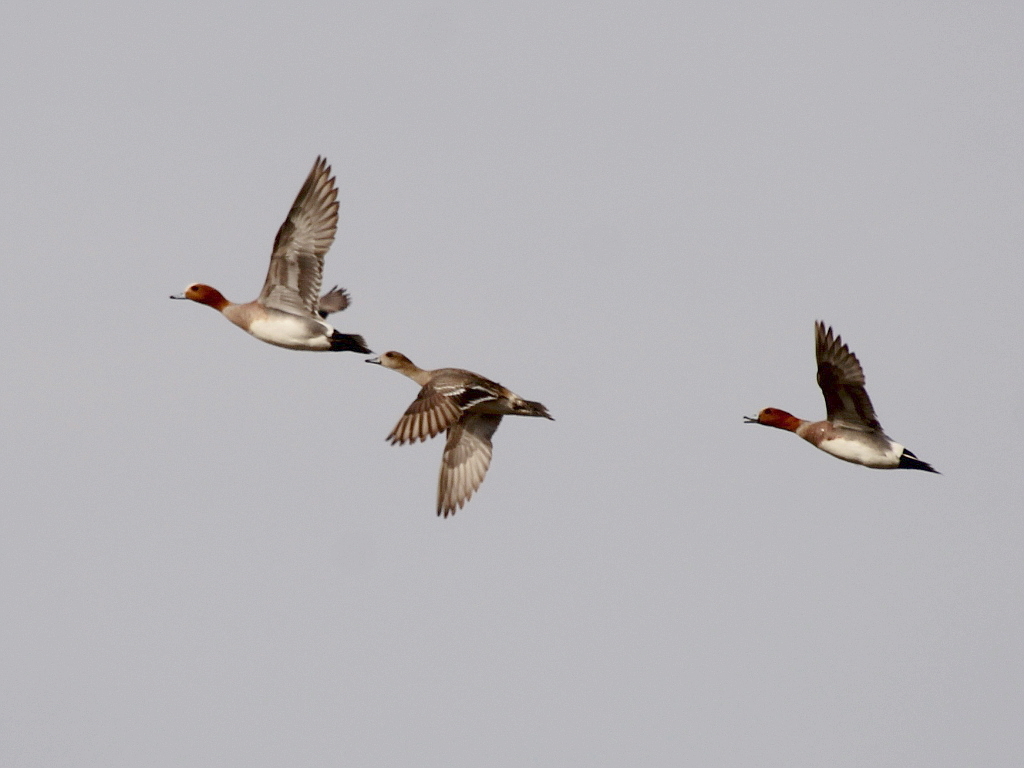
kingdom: Animalia
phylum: Chordata
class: Aves
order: Anseriformes
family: Anatidae
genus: Mareca
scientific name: Mareca penelope
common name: Eurasian wigeon
